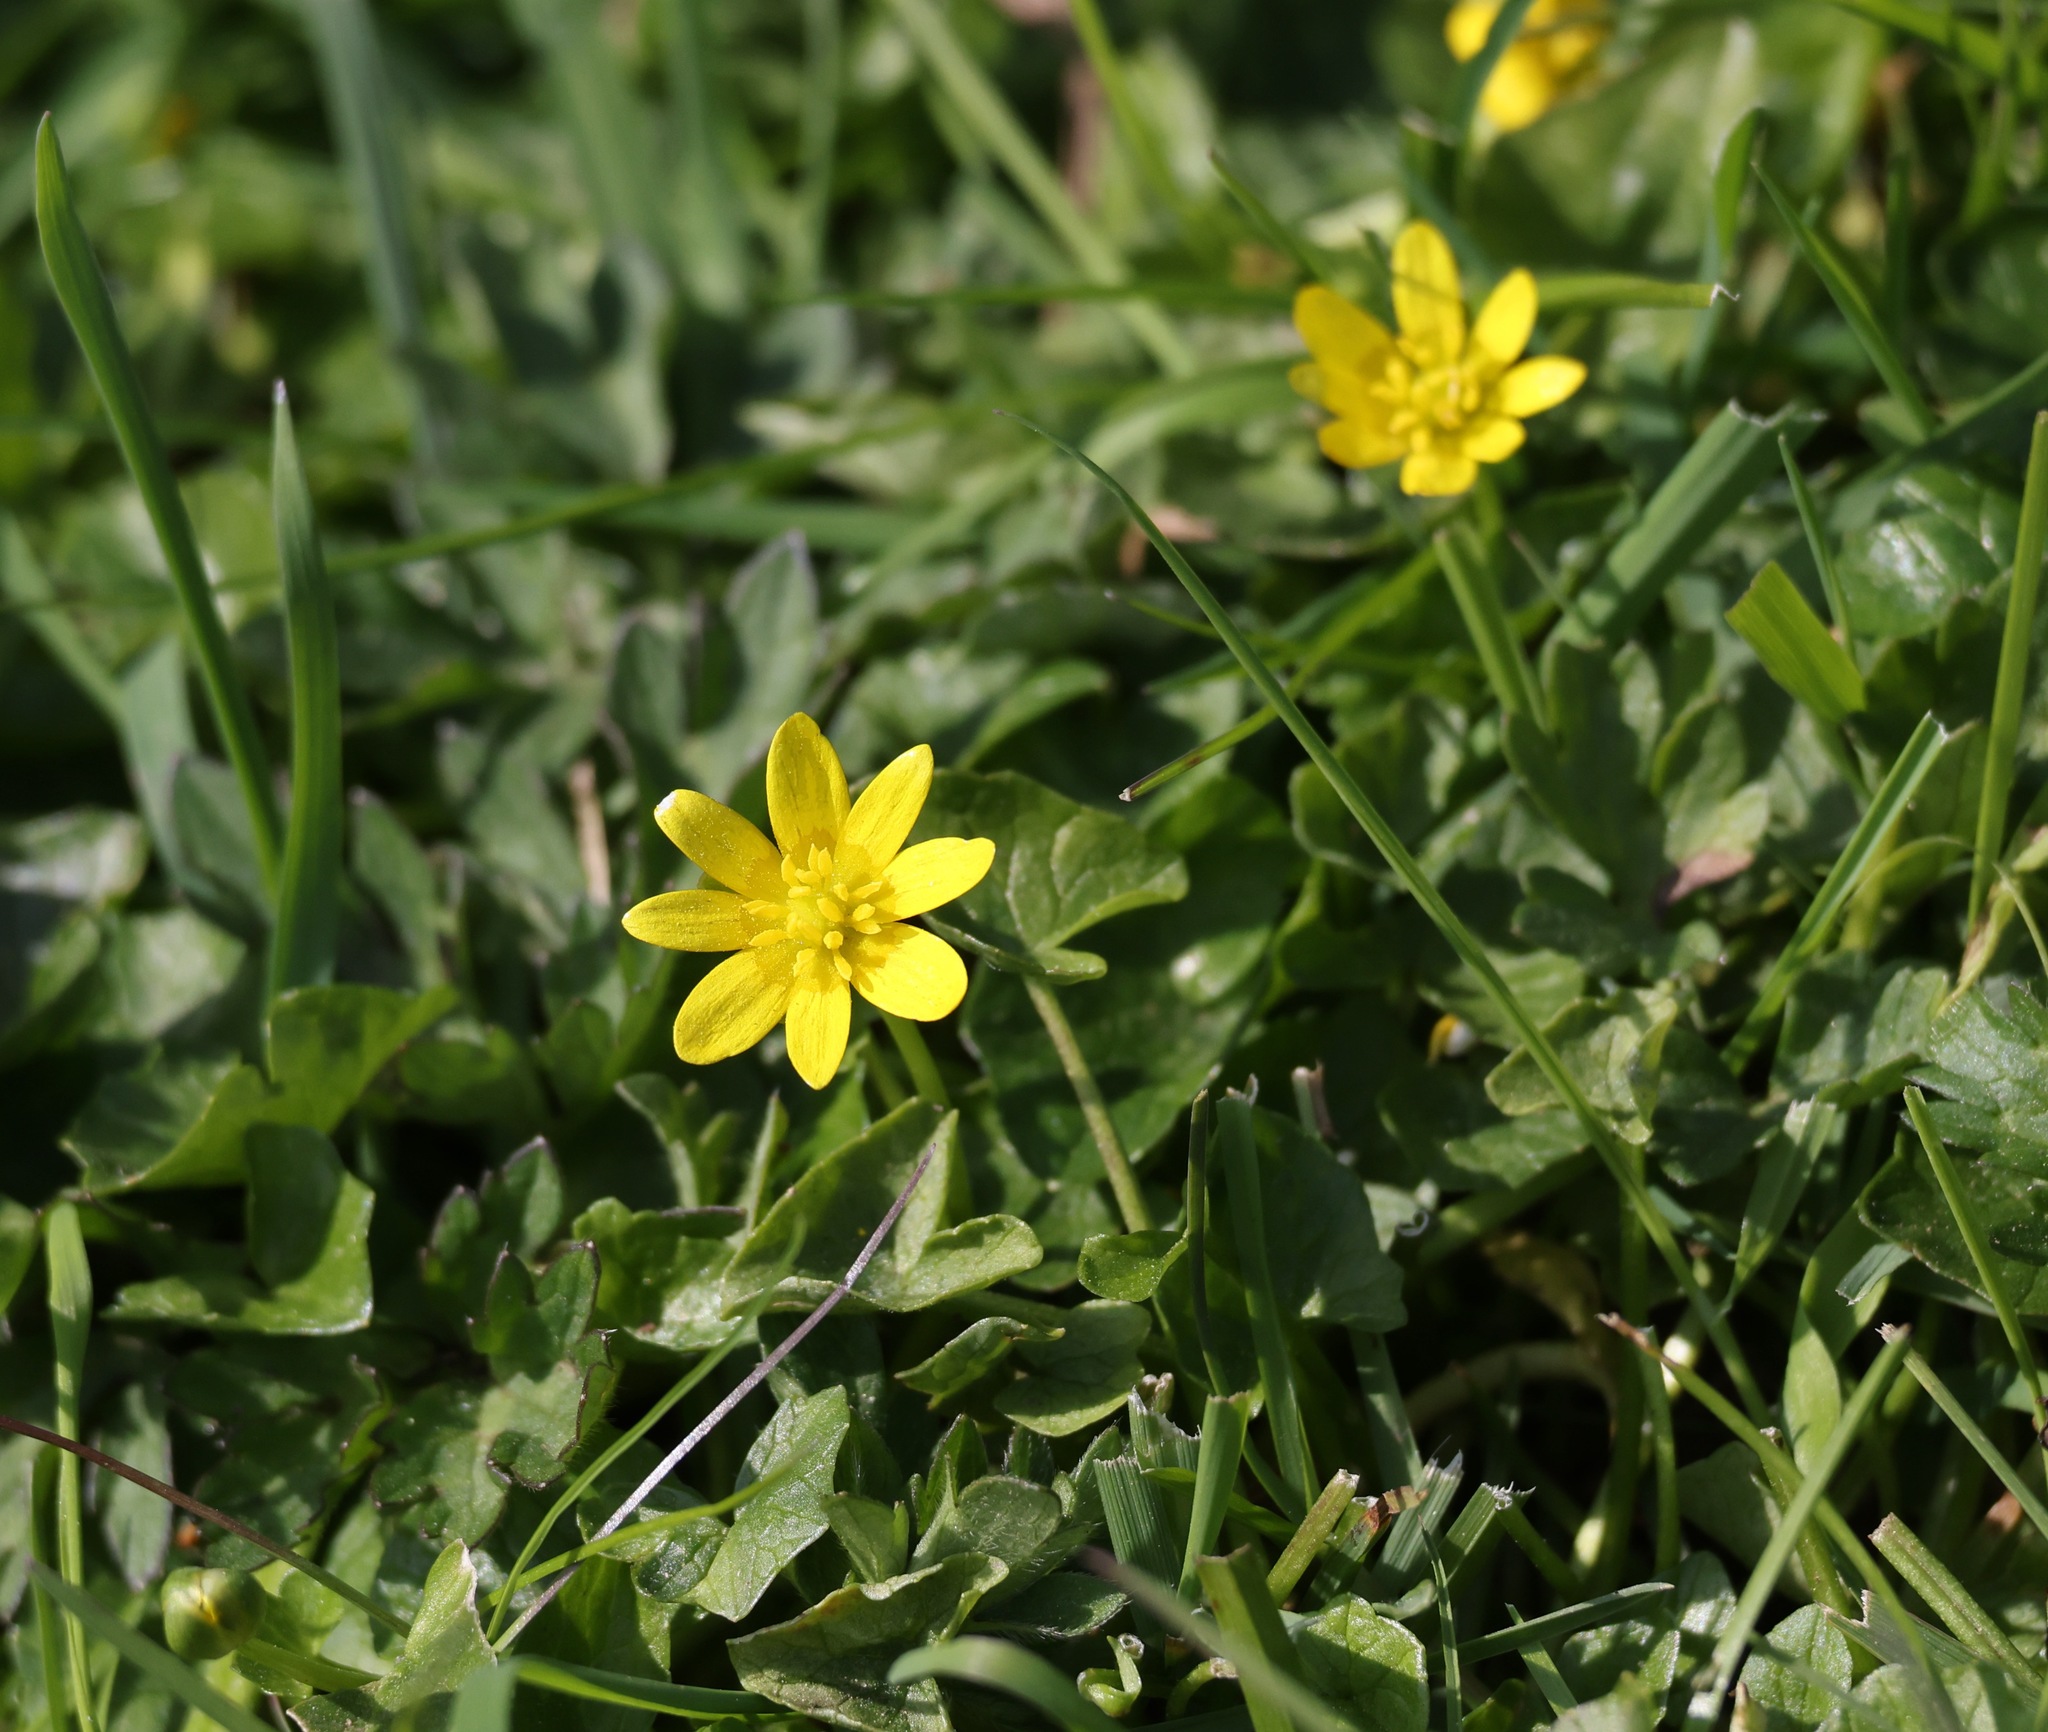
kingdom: Plantae
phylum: Tracheophyta
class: Magnoliopsida
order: Ranunculales
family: Ranunculaceae
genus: Ficaria
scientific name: Ficaria verna
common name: Lesser celandine
